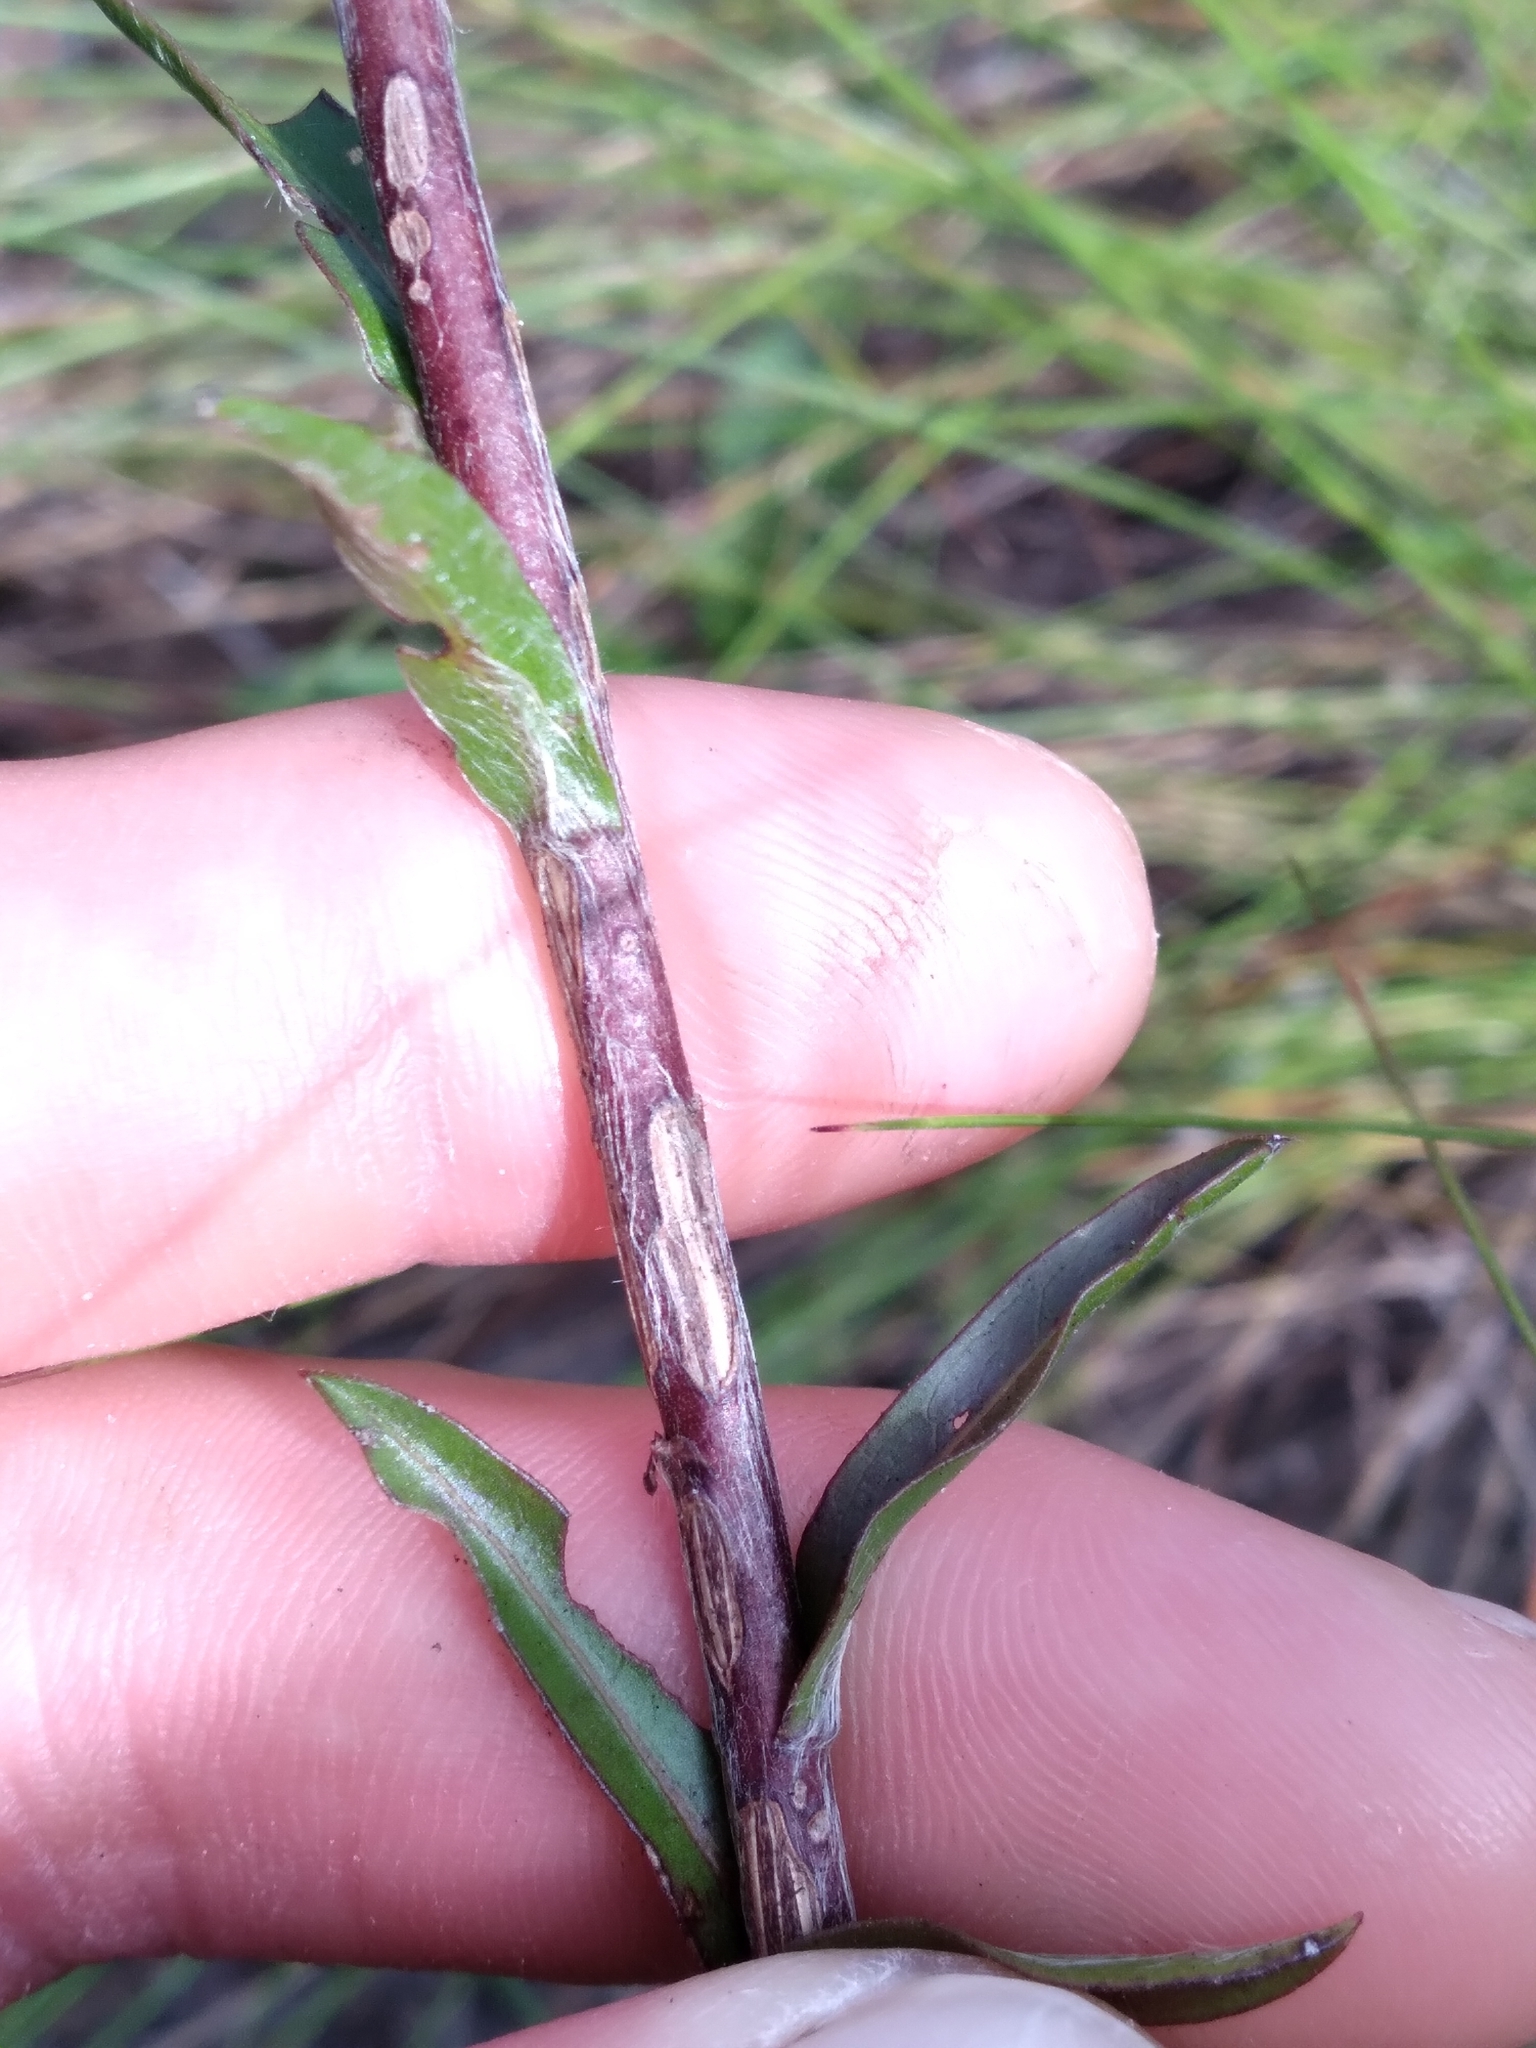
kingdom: Plantae
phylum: Tracheophyta
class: Magnoliopsida
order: Asterales
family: Asteraceae
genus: Chrysopsis
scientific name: Chrysopsis mariana
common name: Maryland golden-aster
